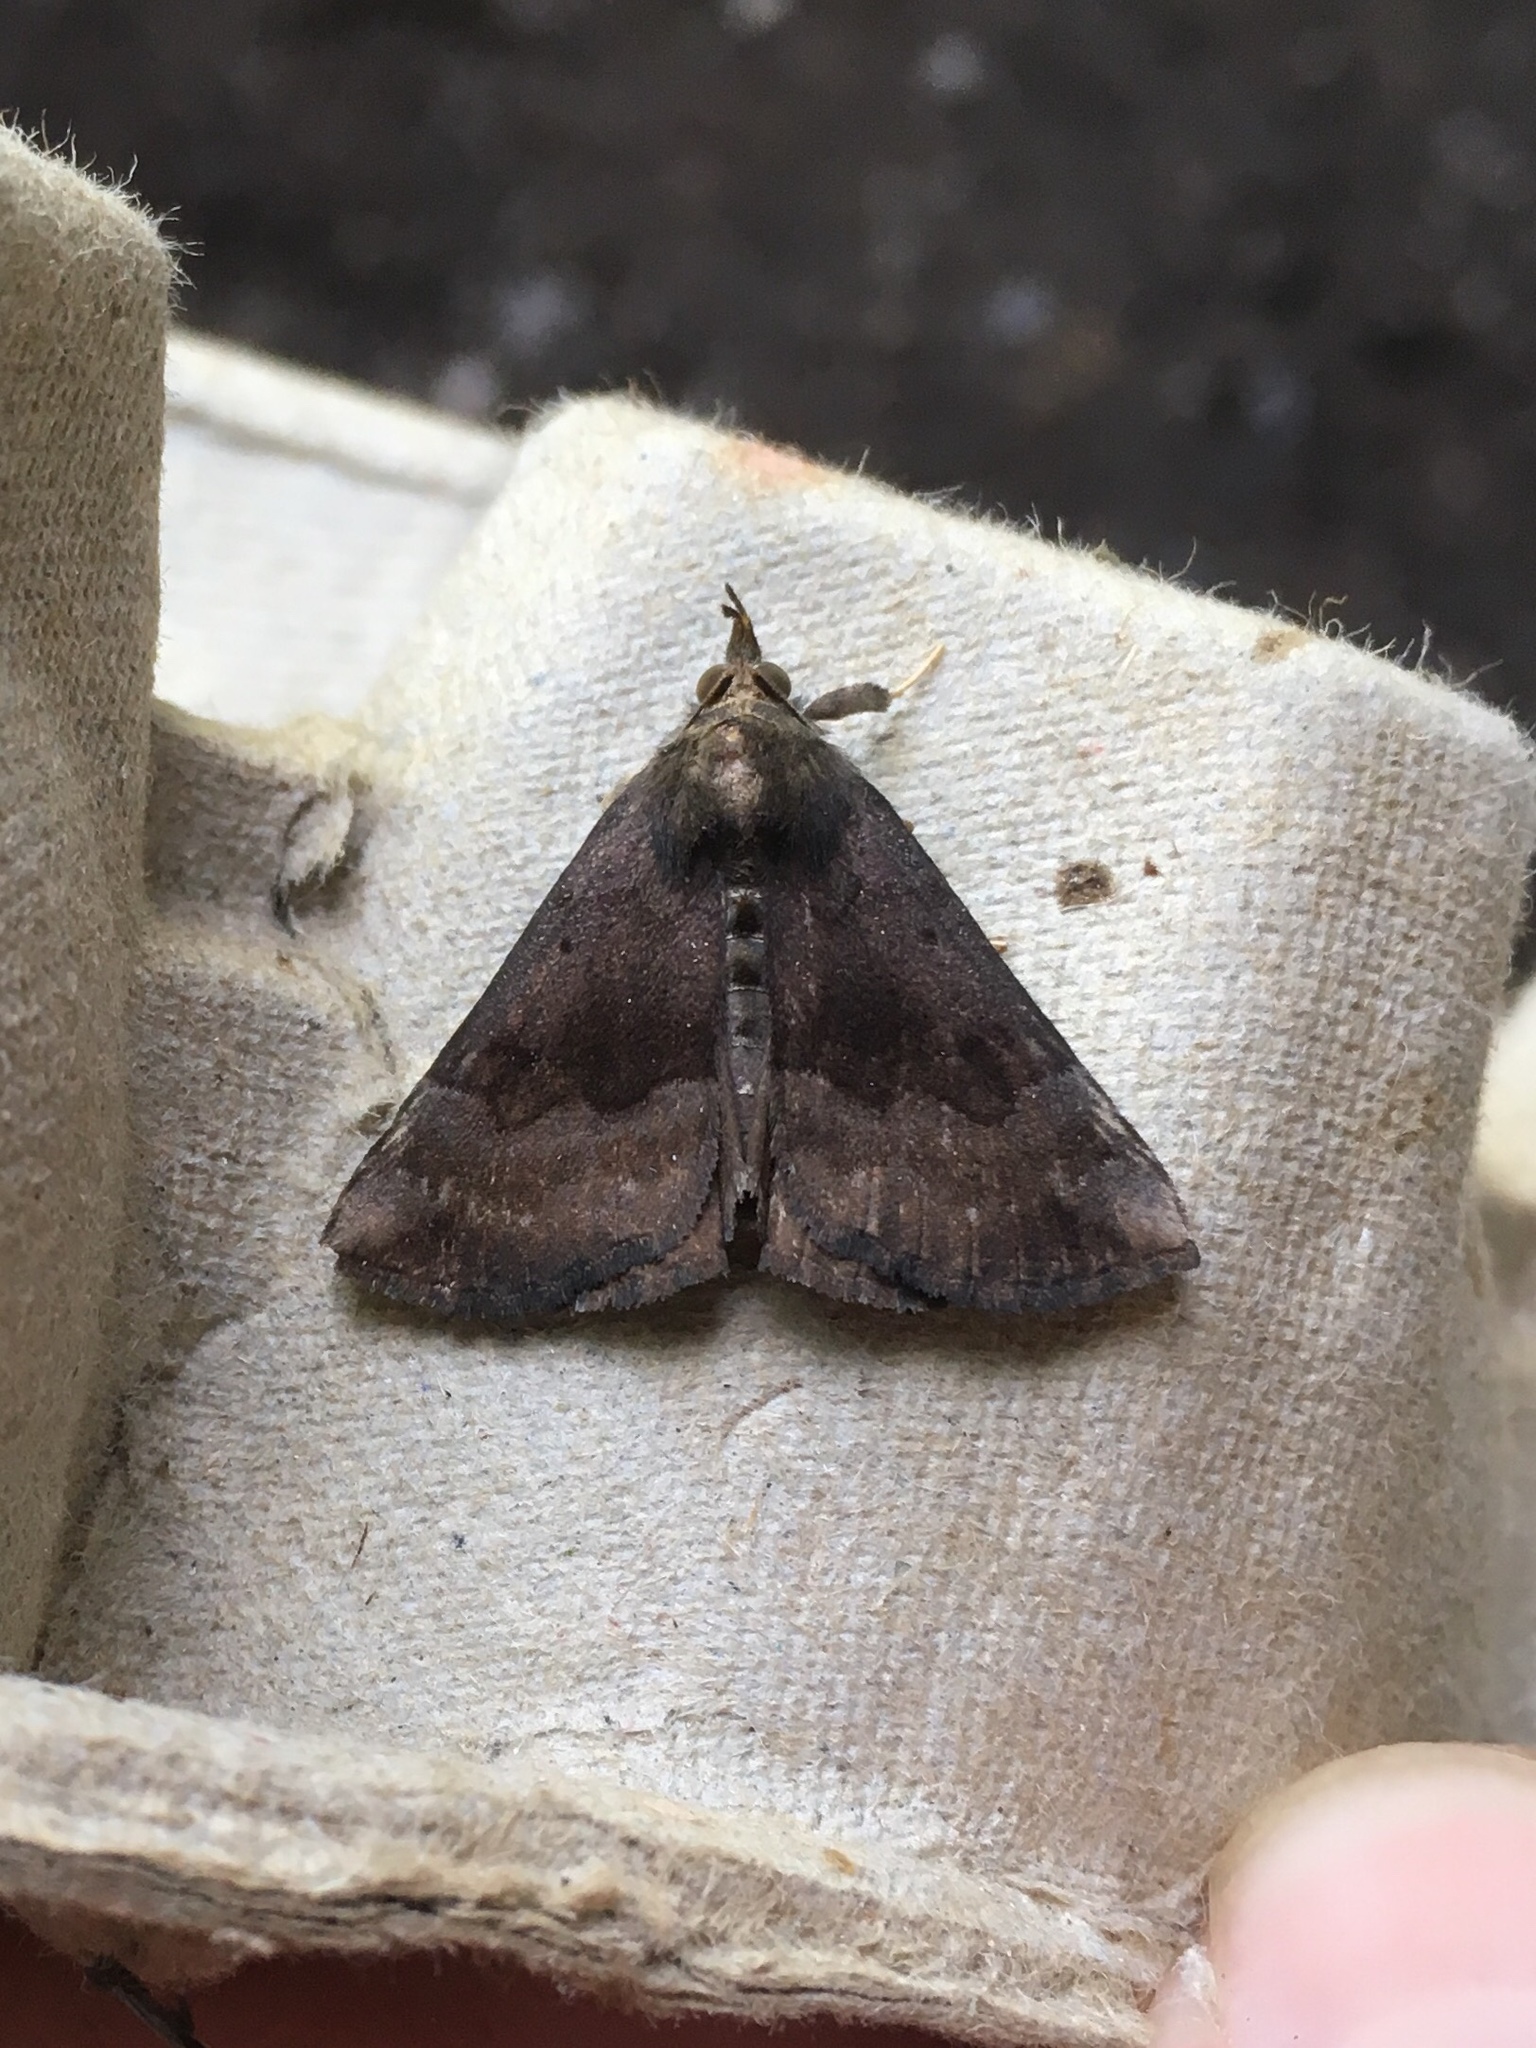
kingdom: Animalia
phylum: Arthropoda
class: Insecta
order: Lepidoptera
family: Erebidae
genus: Hypena
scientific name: Hypena madefactalis
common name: Gray-edged snout
